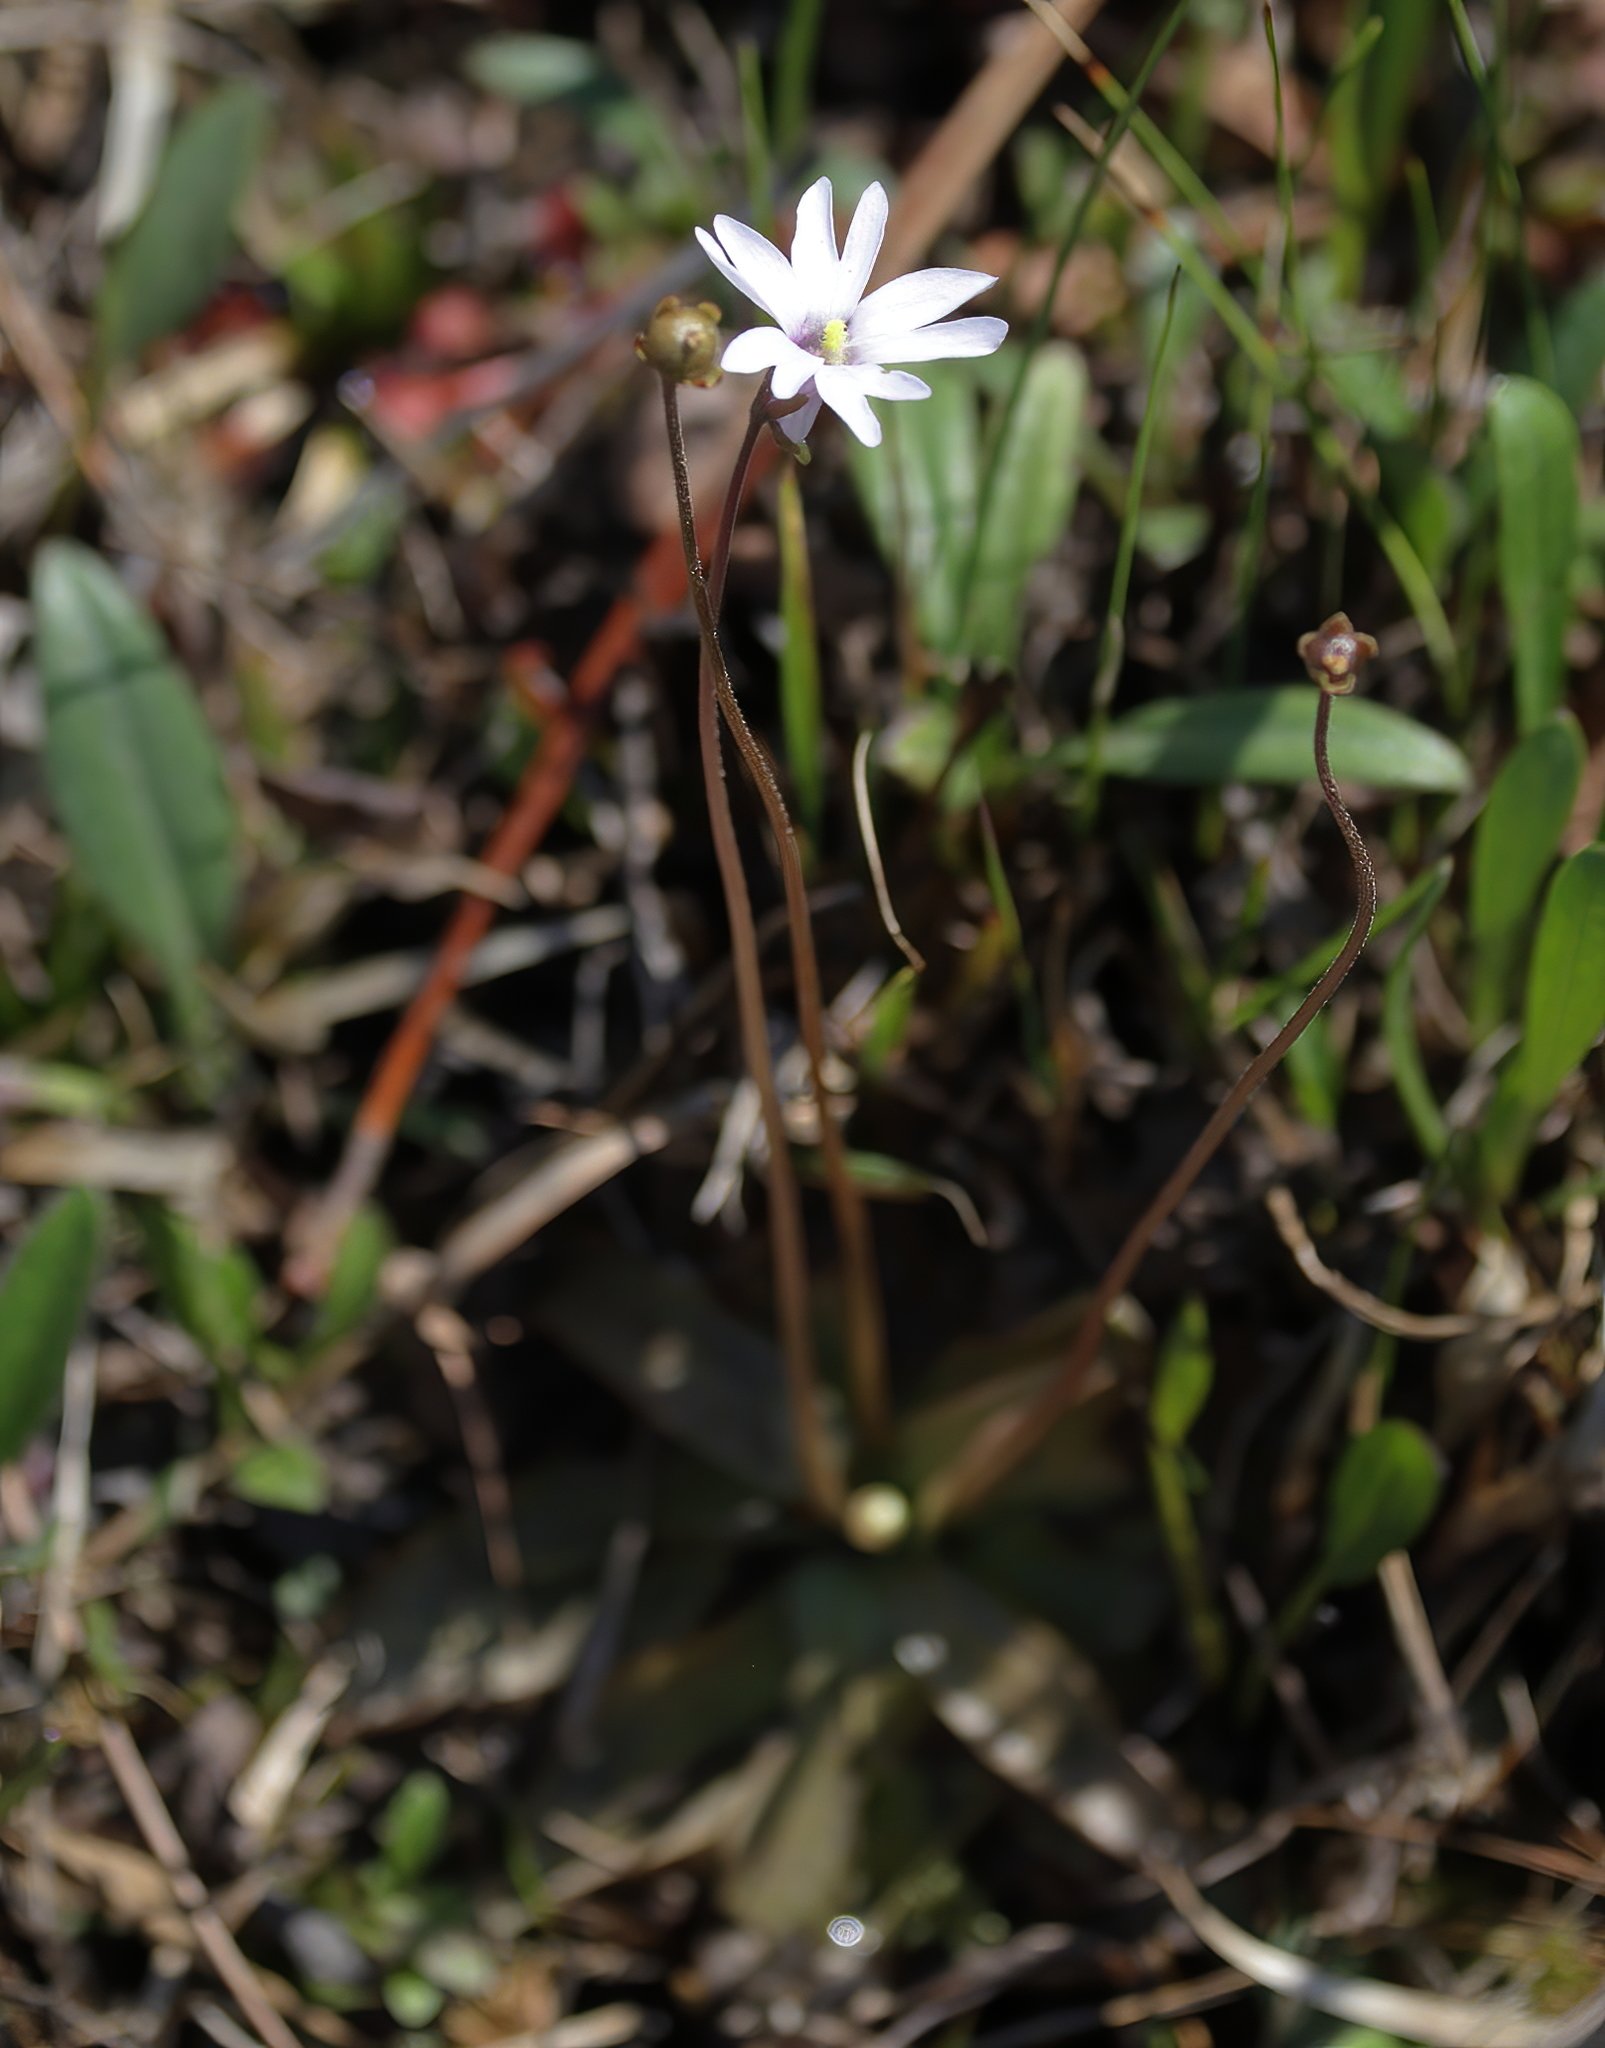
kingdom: Plantae
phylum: Tracheophyta
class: Magnoliopsida
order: Lamiales
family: Lentibulariaceae
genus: Pinguicula
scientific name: Pinguicula planifolia
